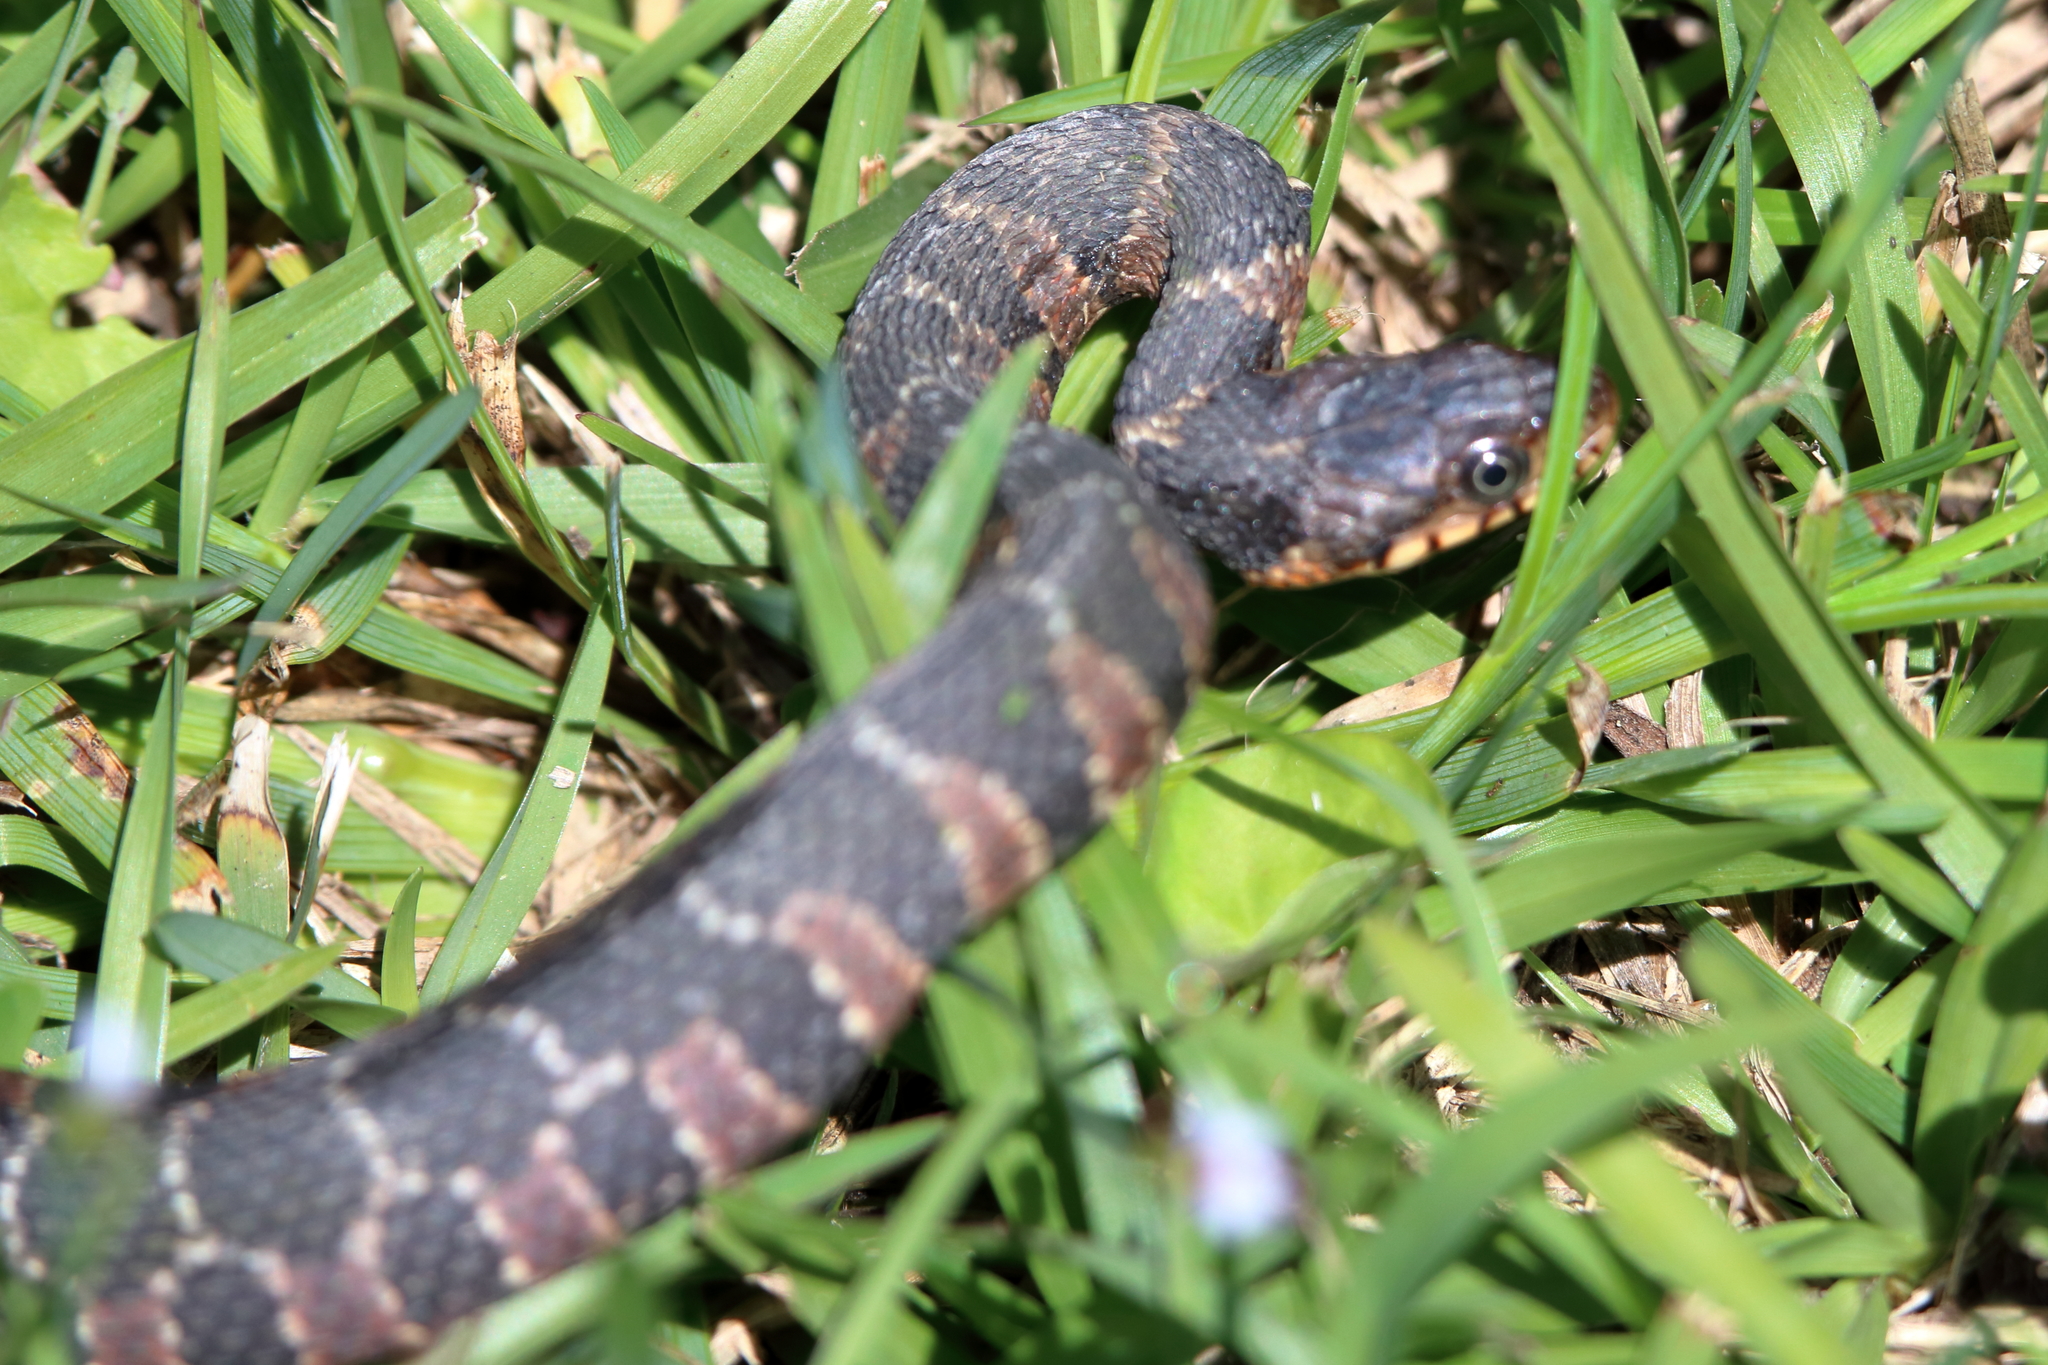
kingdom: Animalia
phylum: Chordata
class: Squamata
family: Colubridae
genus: Nerodia
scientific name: Nerodia erythrogaster
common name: Plainbelly water snake
